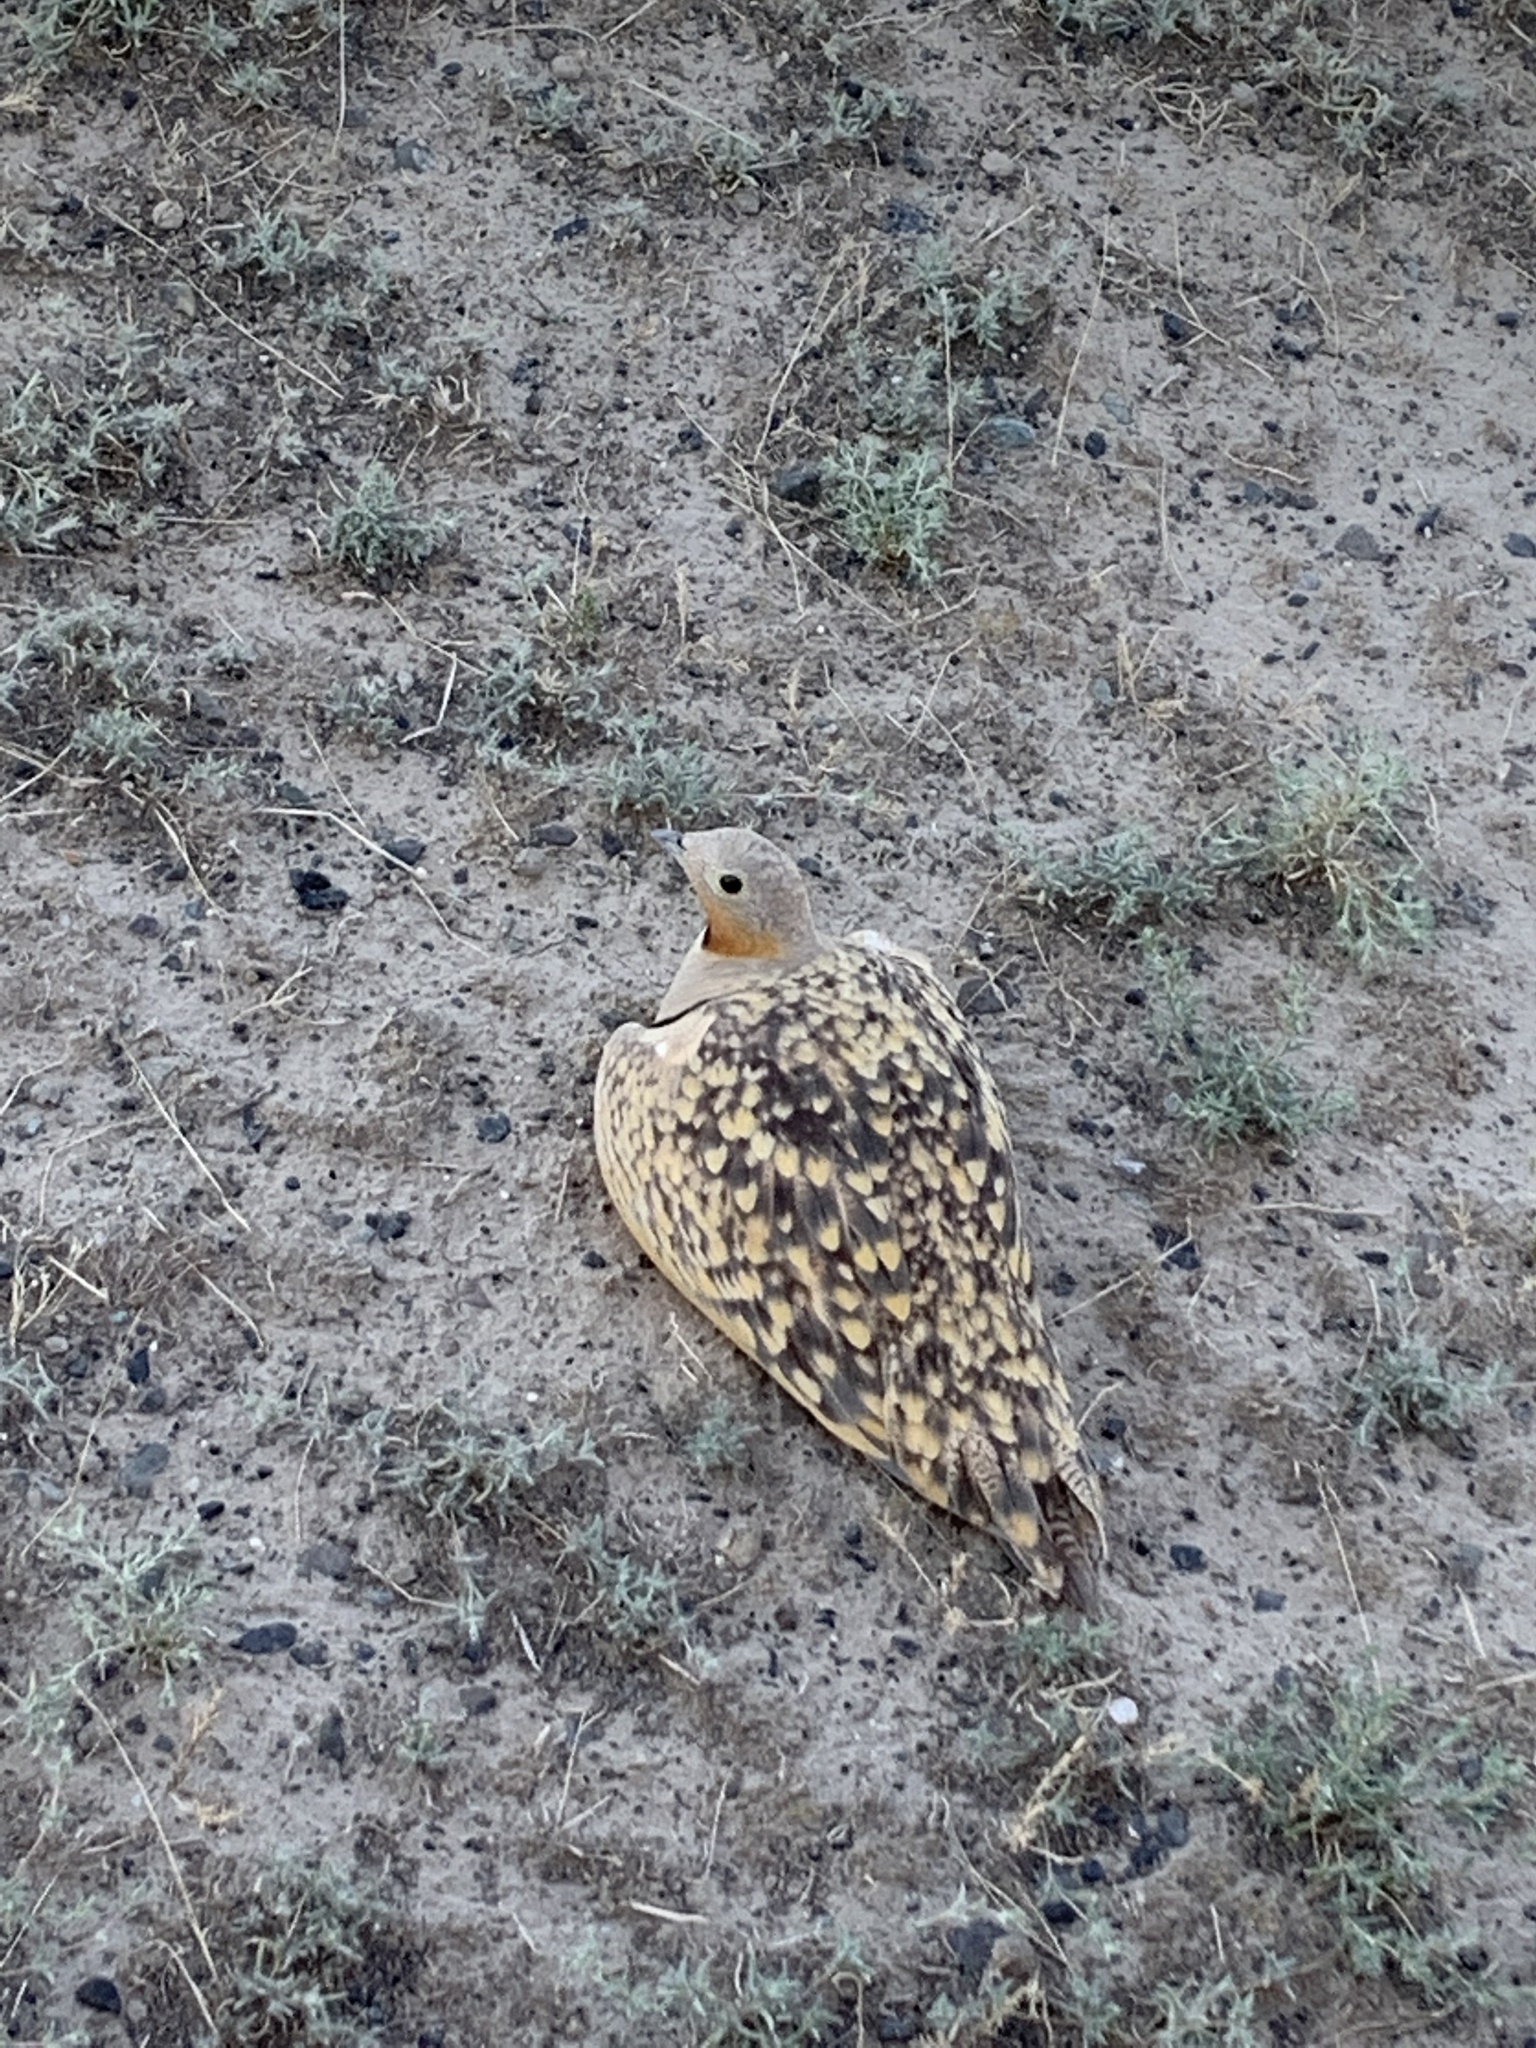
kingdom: Animalia
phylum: Chordata
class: Aves
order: Pteroclidiformes
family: Pteroclididae
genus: Pterocles
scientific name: Pterocles orientalis
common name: Black-bellied sandgrouse
